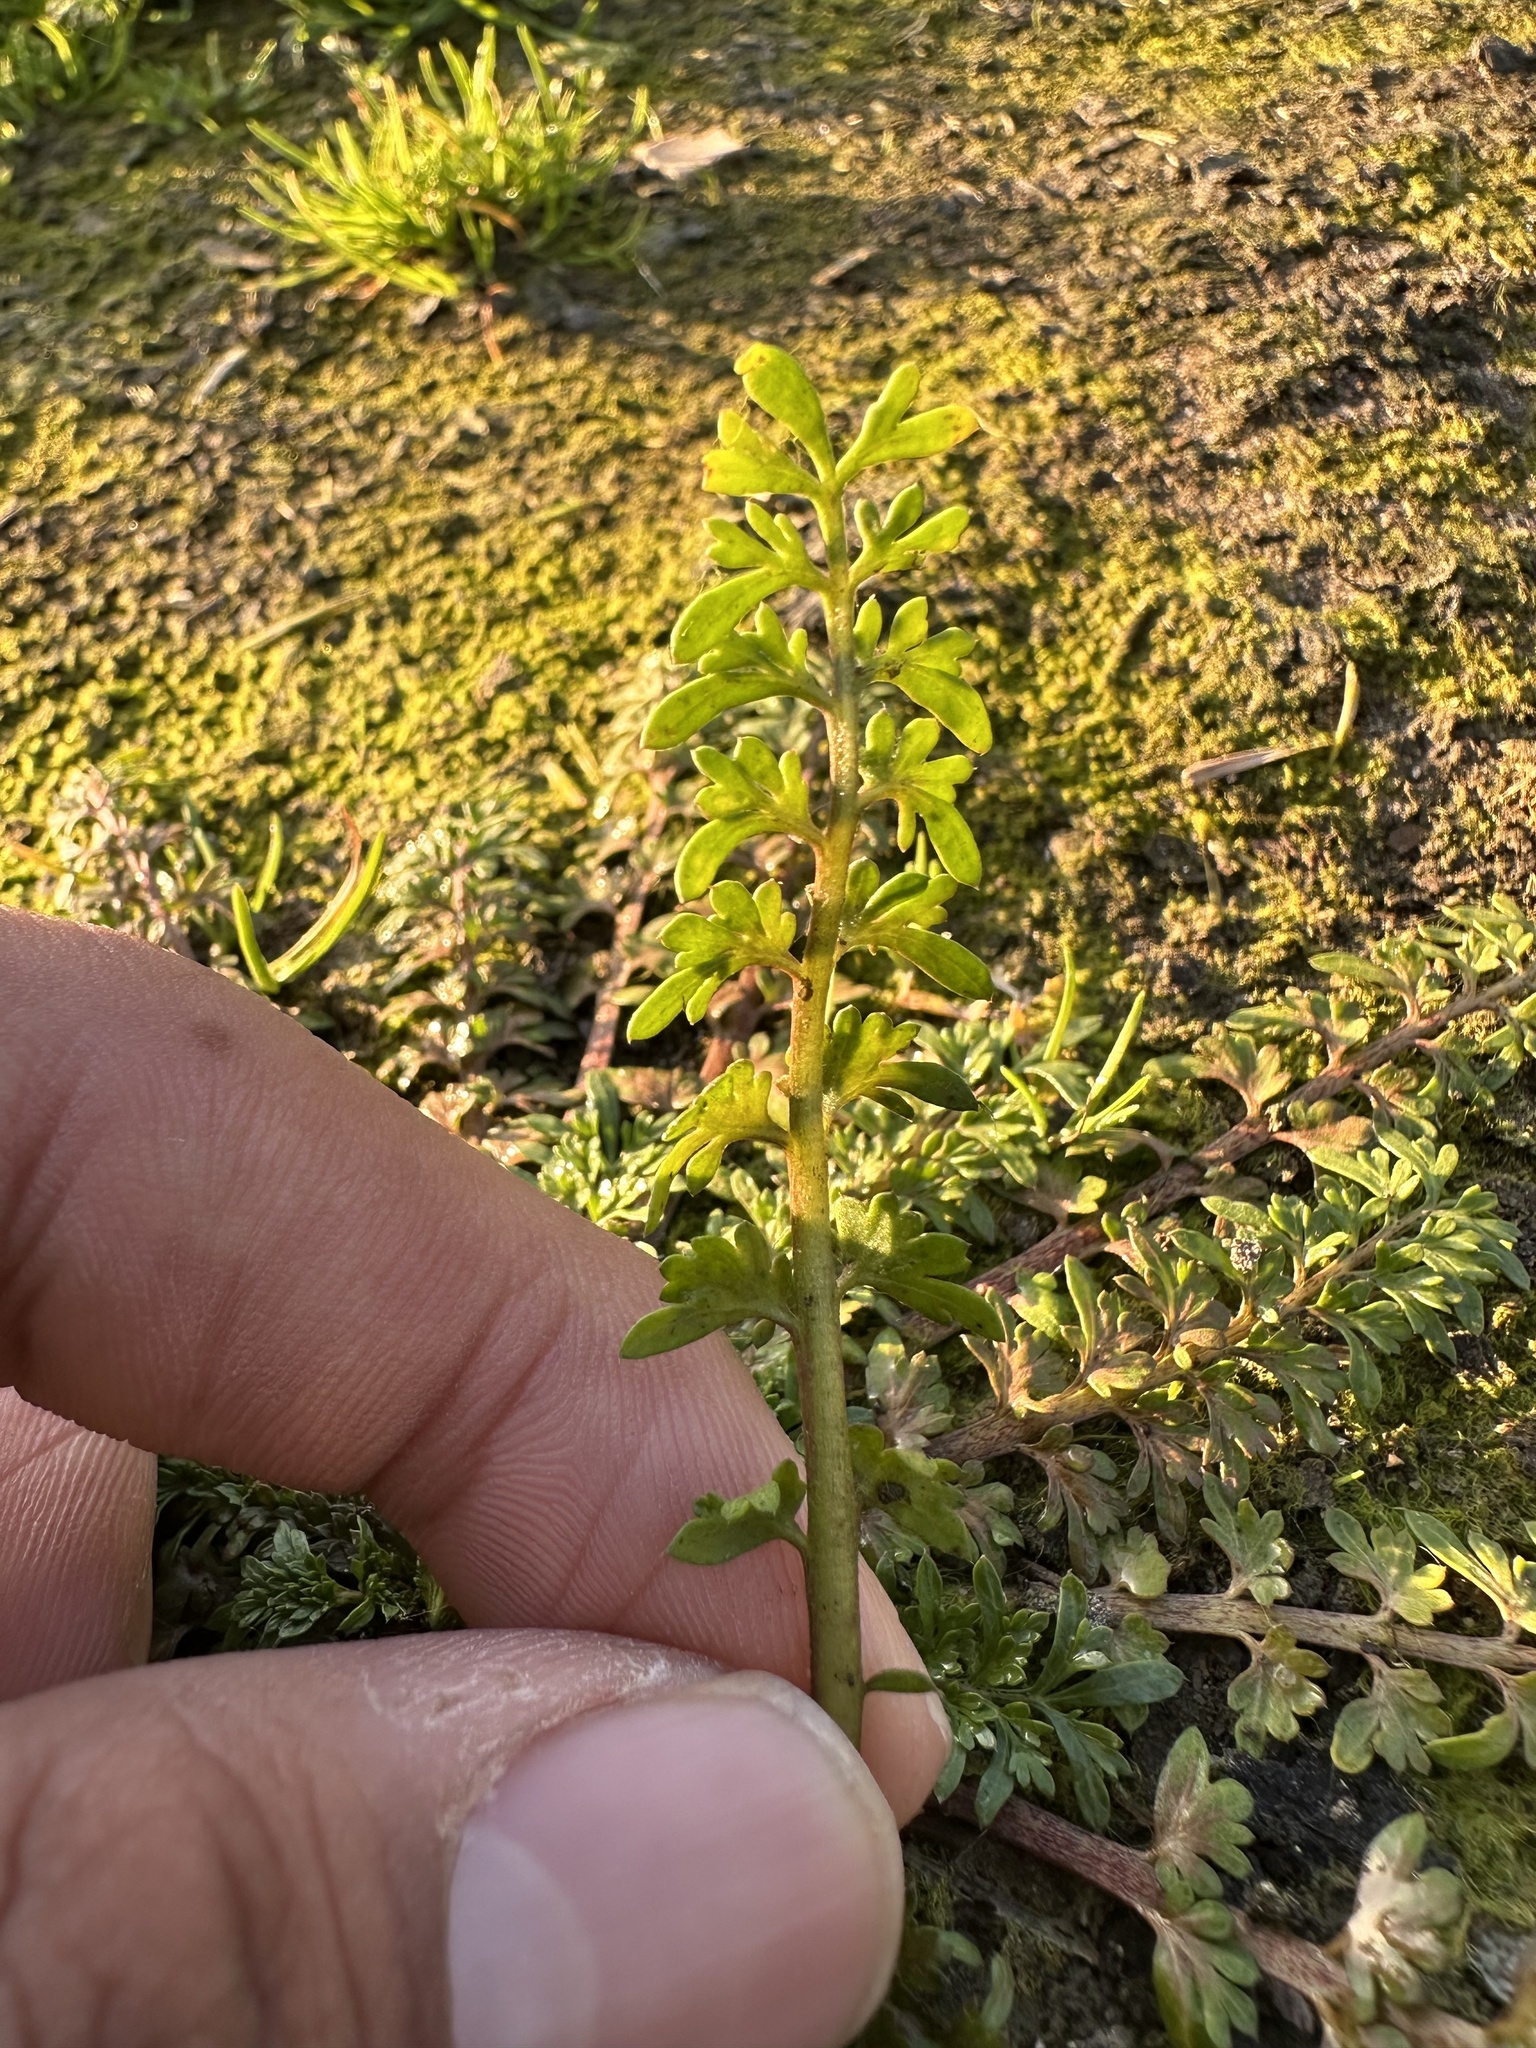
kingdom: Plantae
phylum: Tracheophyta
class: Magnoliopsida
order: Brassicales
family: Brassicaceae
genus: Capsella
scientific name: Capsella bursa-pastoris
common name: Shepherd's purse
